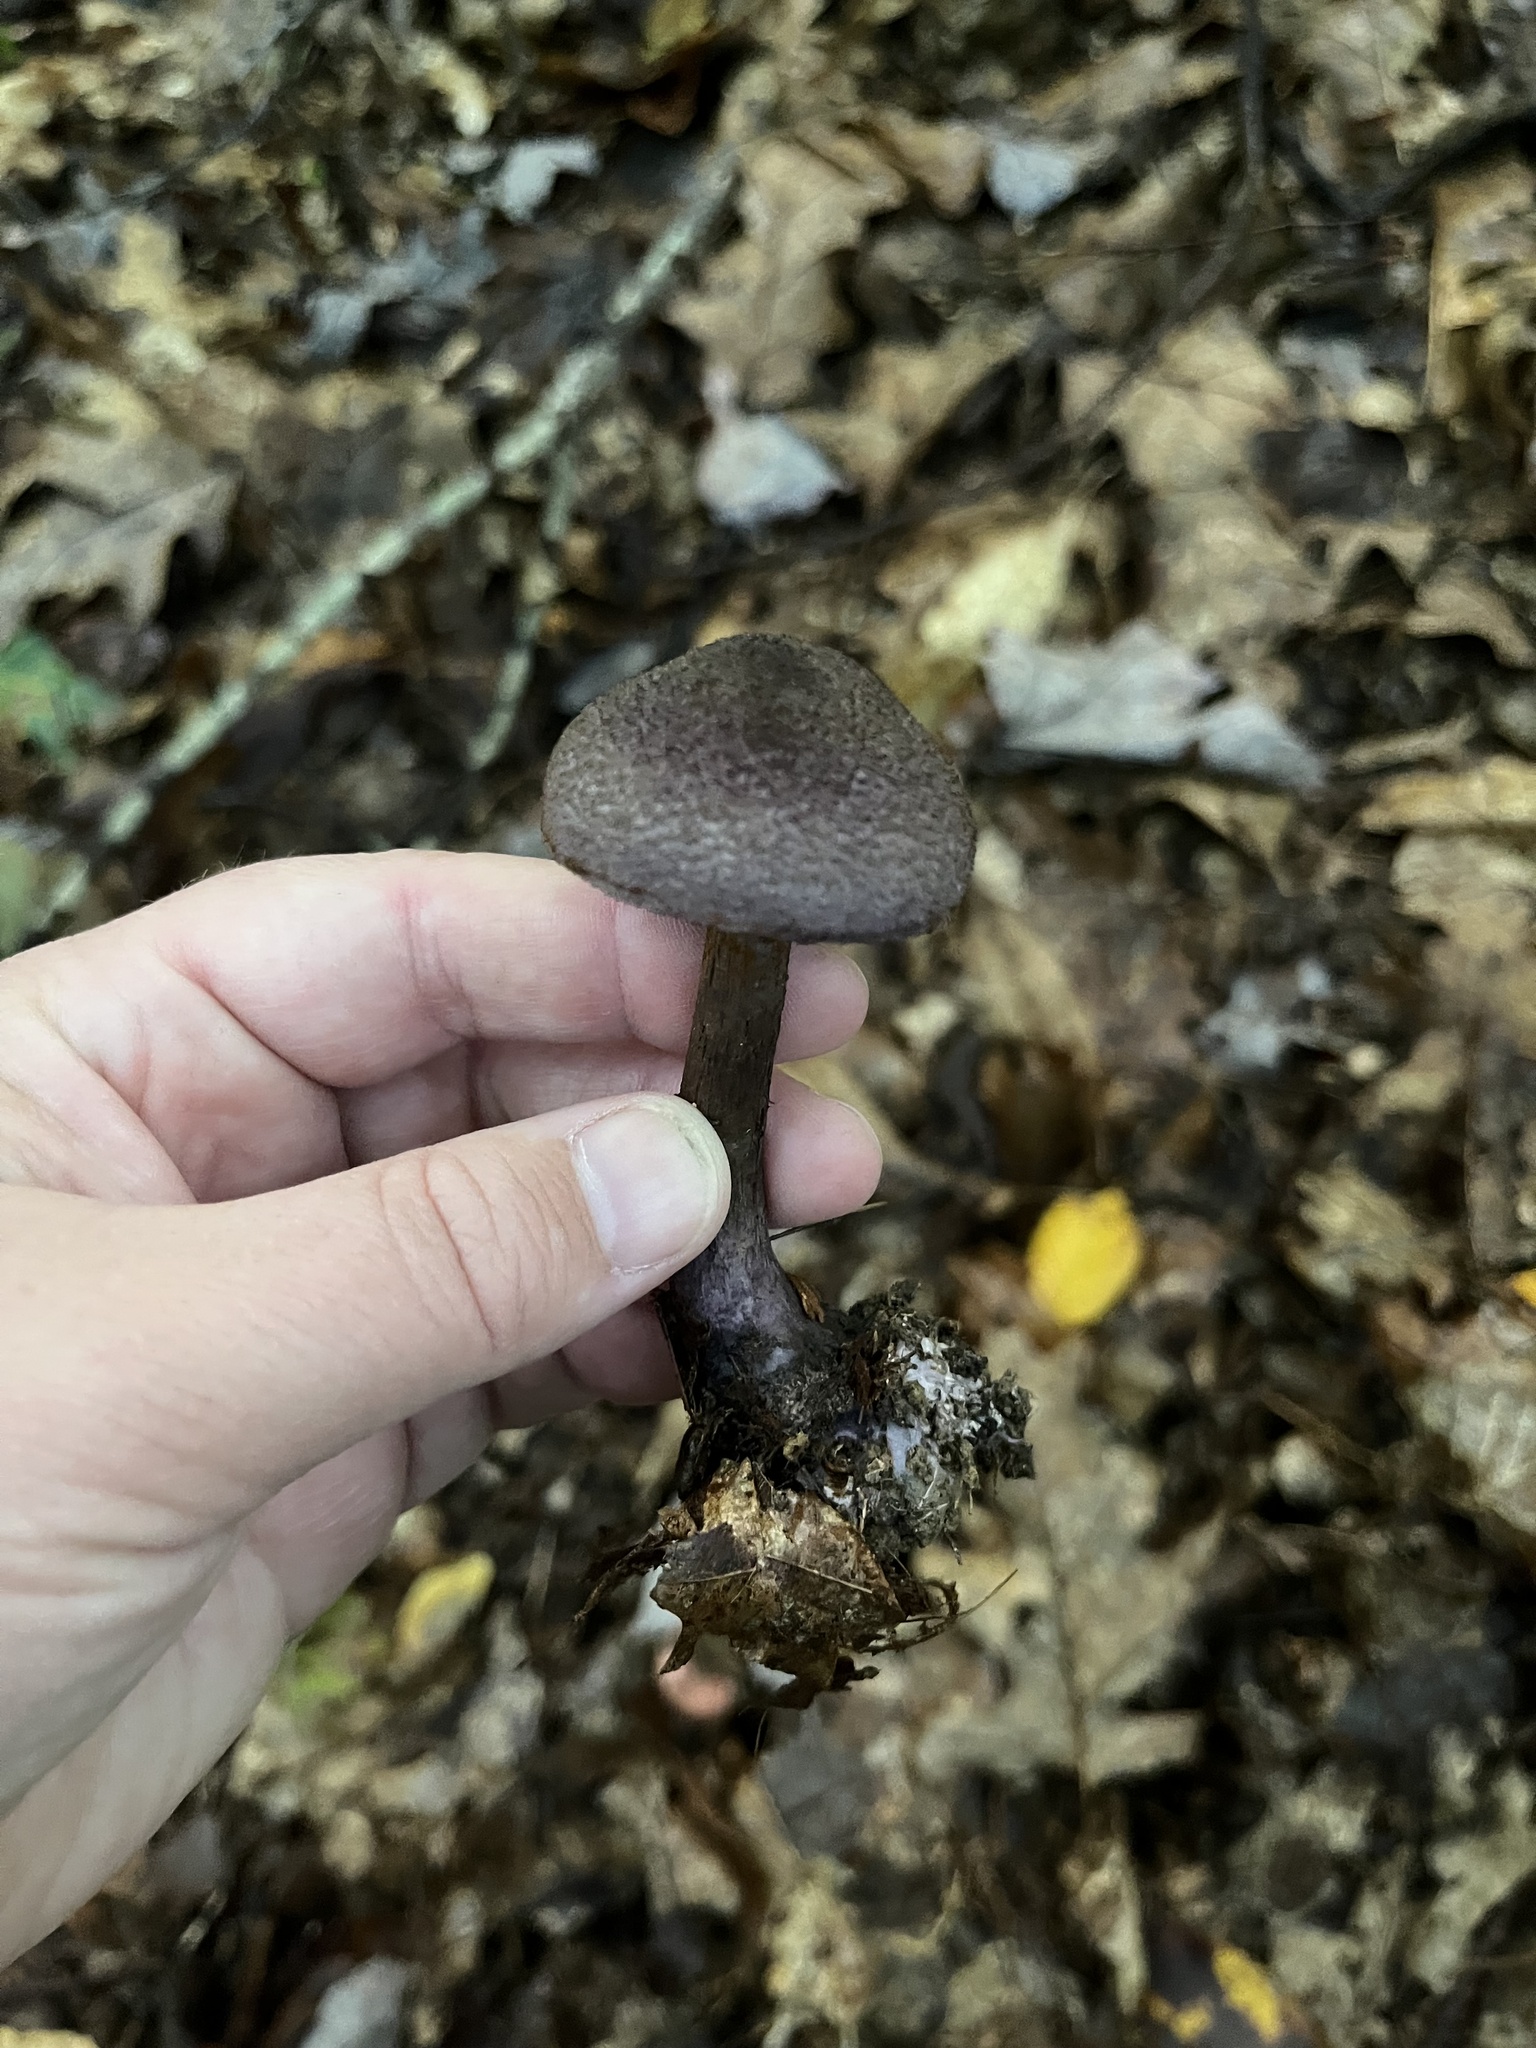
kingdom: Fungi
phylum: Basidiomycota
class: Agaricomycetes
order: Agaricales
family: Cortinariaceae
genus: Cortinarius
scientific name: Cortinarius violaceus
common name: Violet webcap
